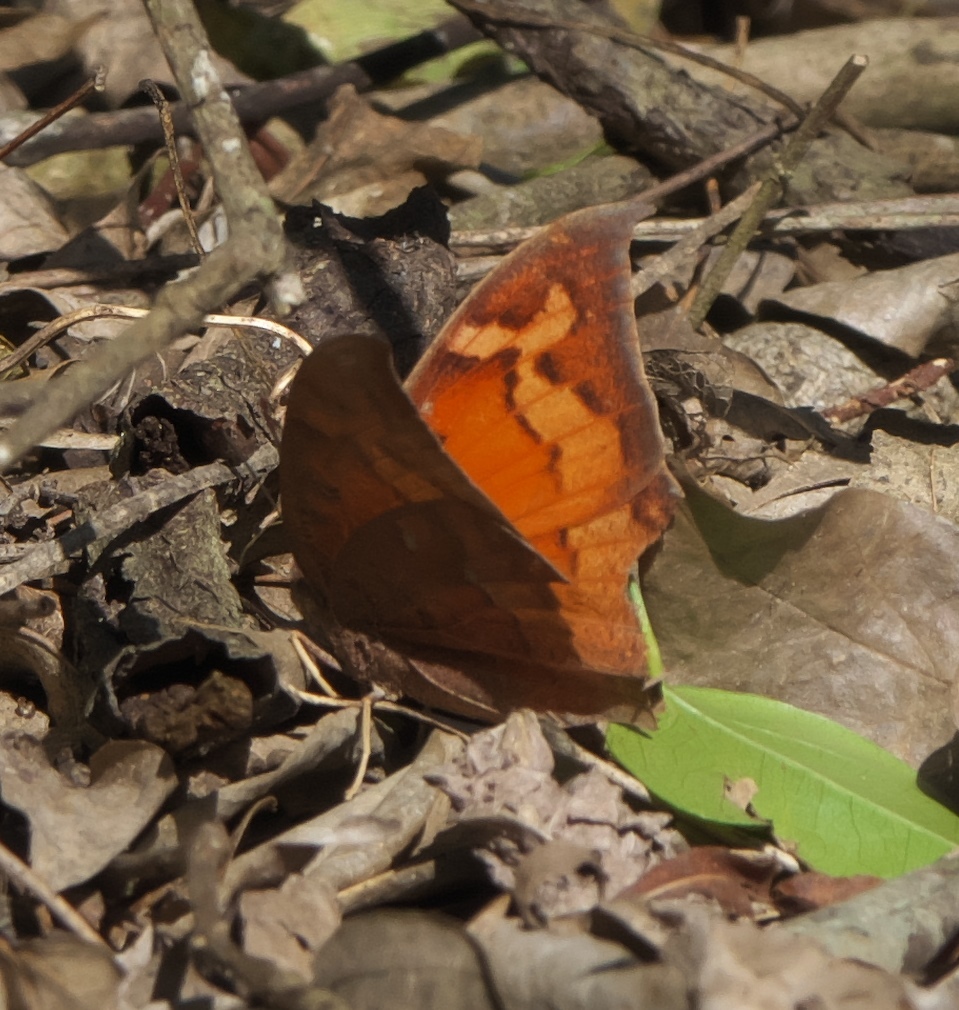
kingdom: Animalia
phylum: Arthropoda
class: Insecta
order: Lepidoptera
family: Nymphalidae
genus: Anaea
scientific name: Anaea aidea
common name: Tropical leafwing
